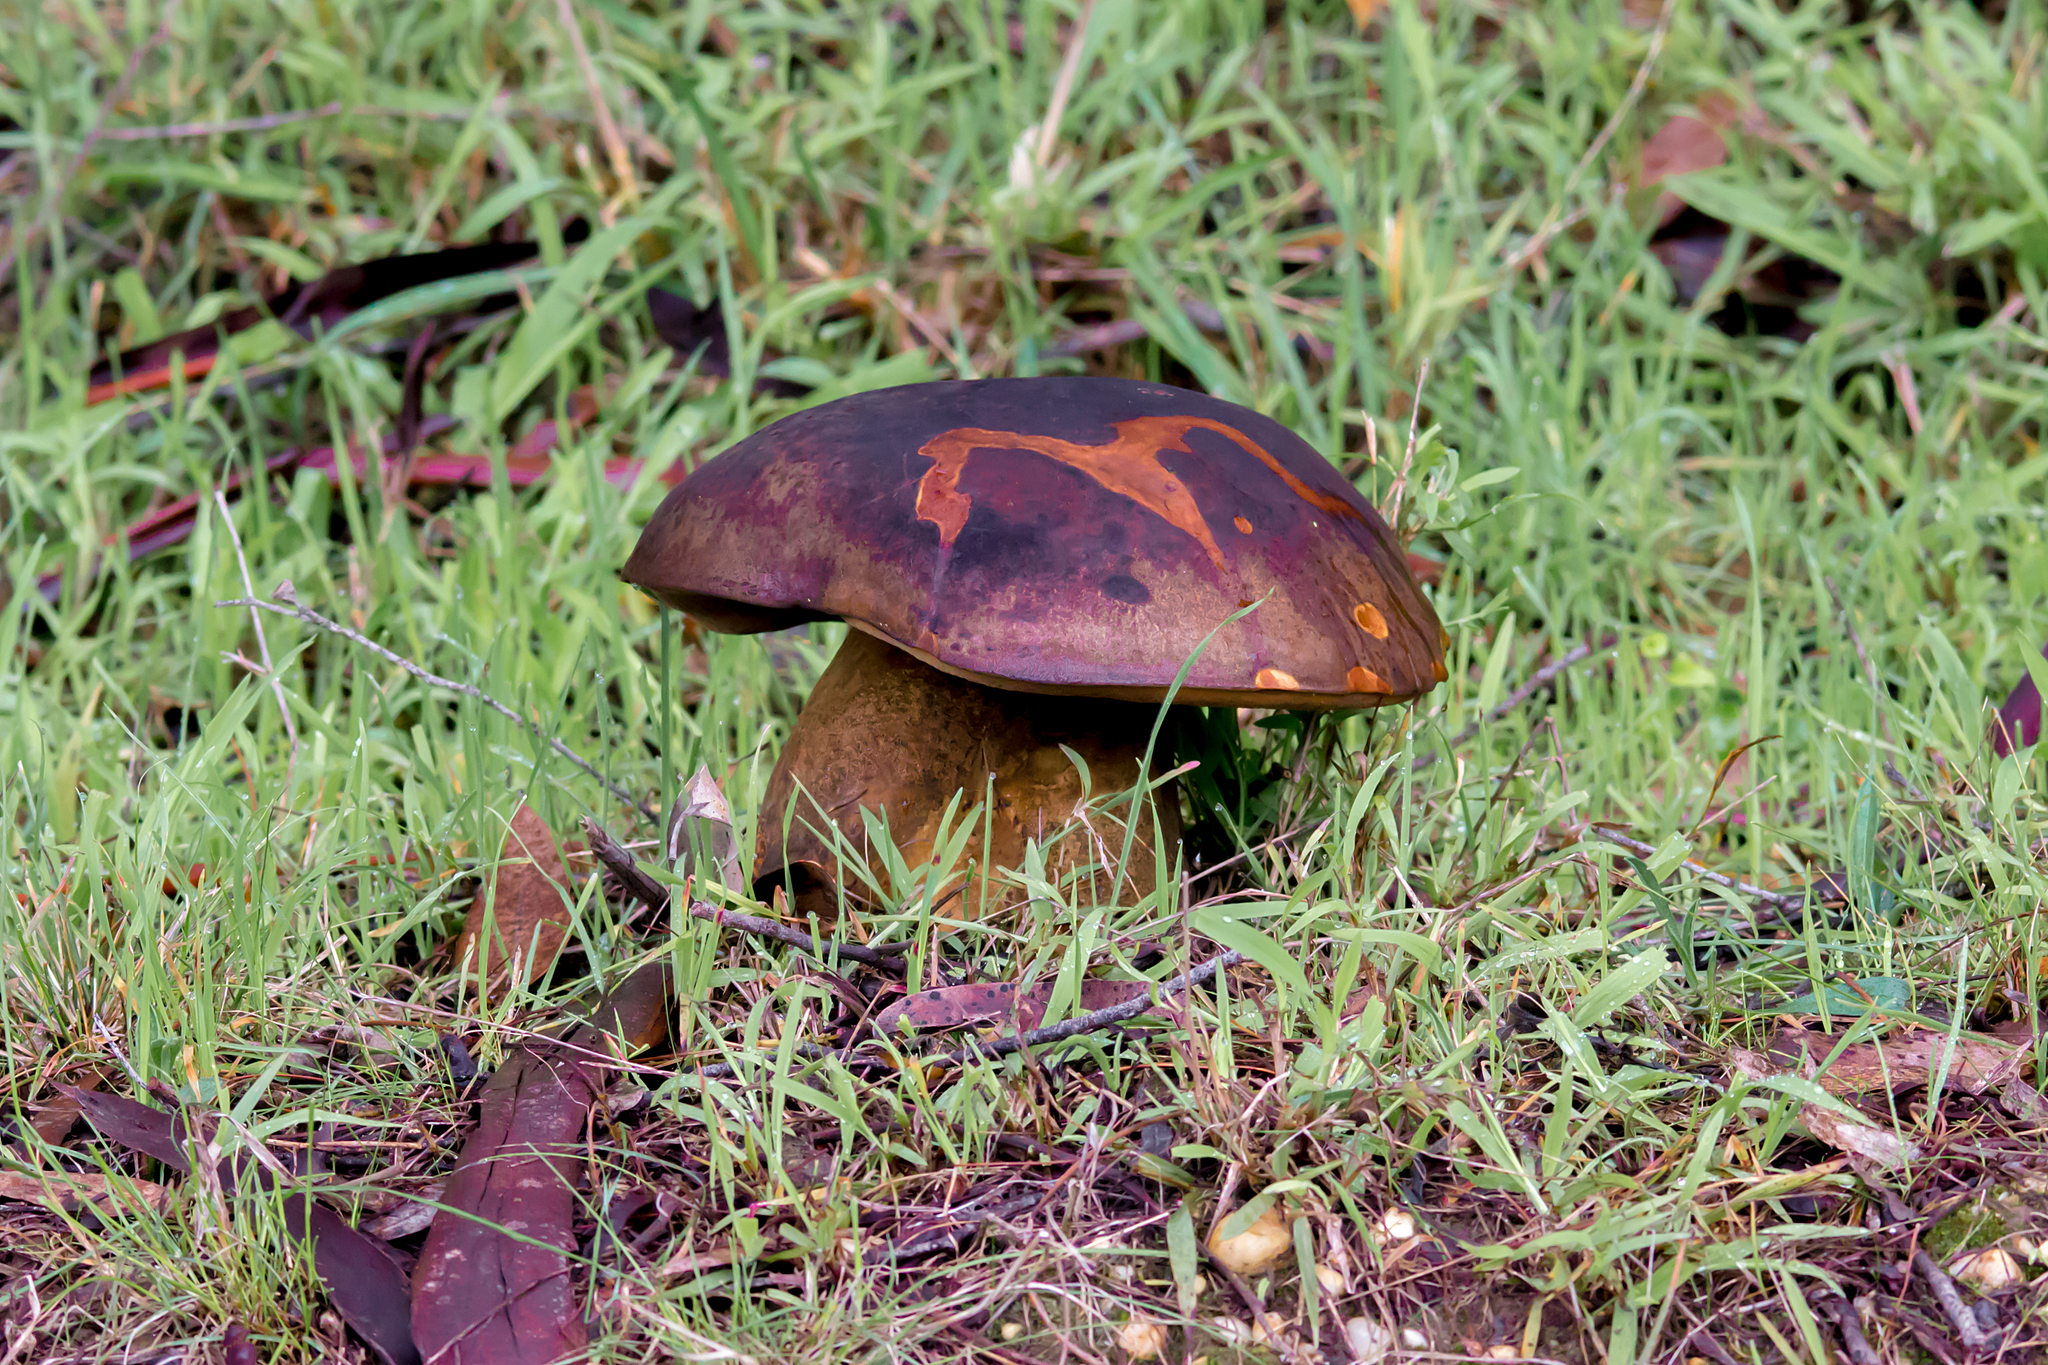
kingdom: Fungi
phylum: Basidiomycota
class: Agaricomycetes
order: Boletales
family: Boletinellaceae
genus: Phlebopus
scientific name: Phlebopus marginatus
